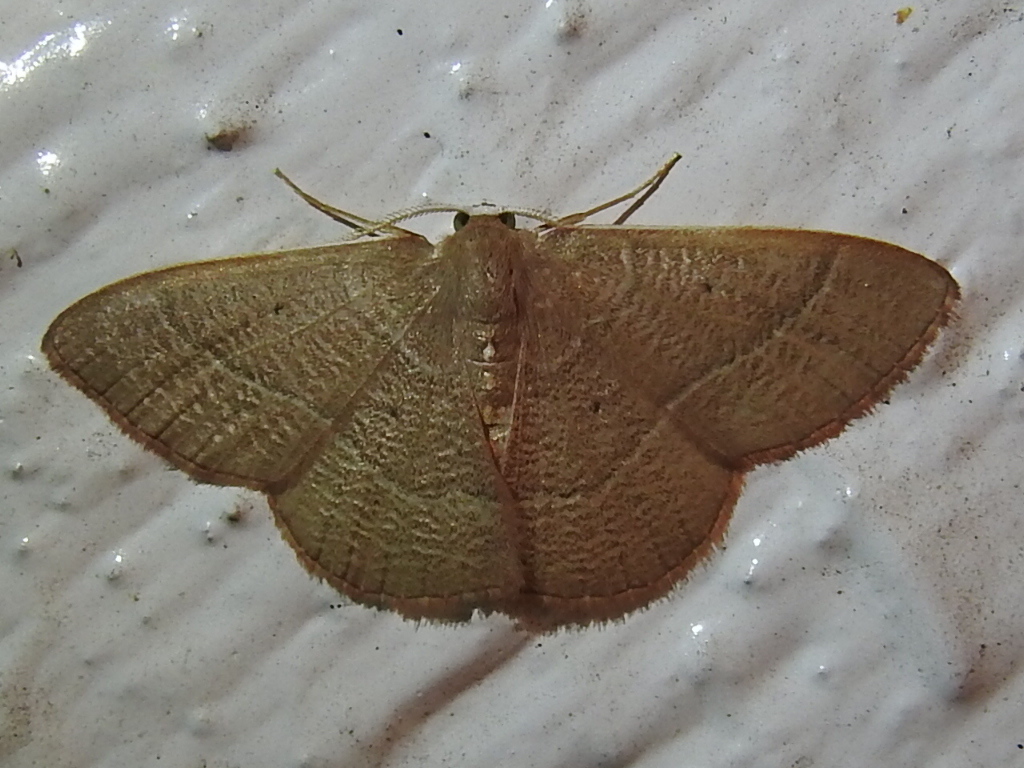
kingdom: Animalia
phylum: Arthropoda
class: Insecta
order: Lepidoptera
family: Geometridae
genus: Nemoria
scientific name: Nemoria bifilata
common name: White-barred emerald moth
